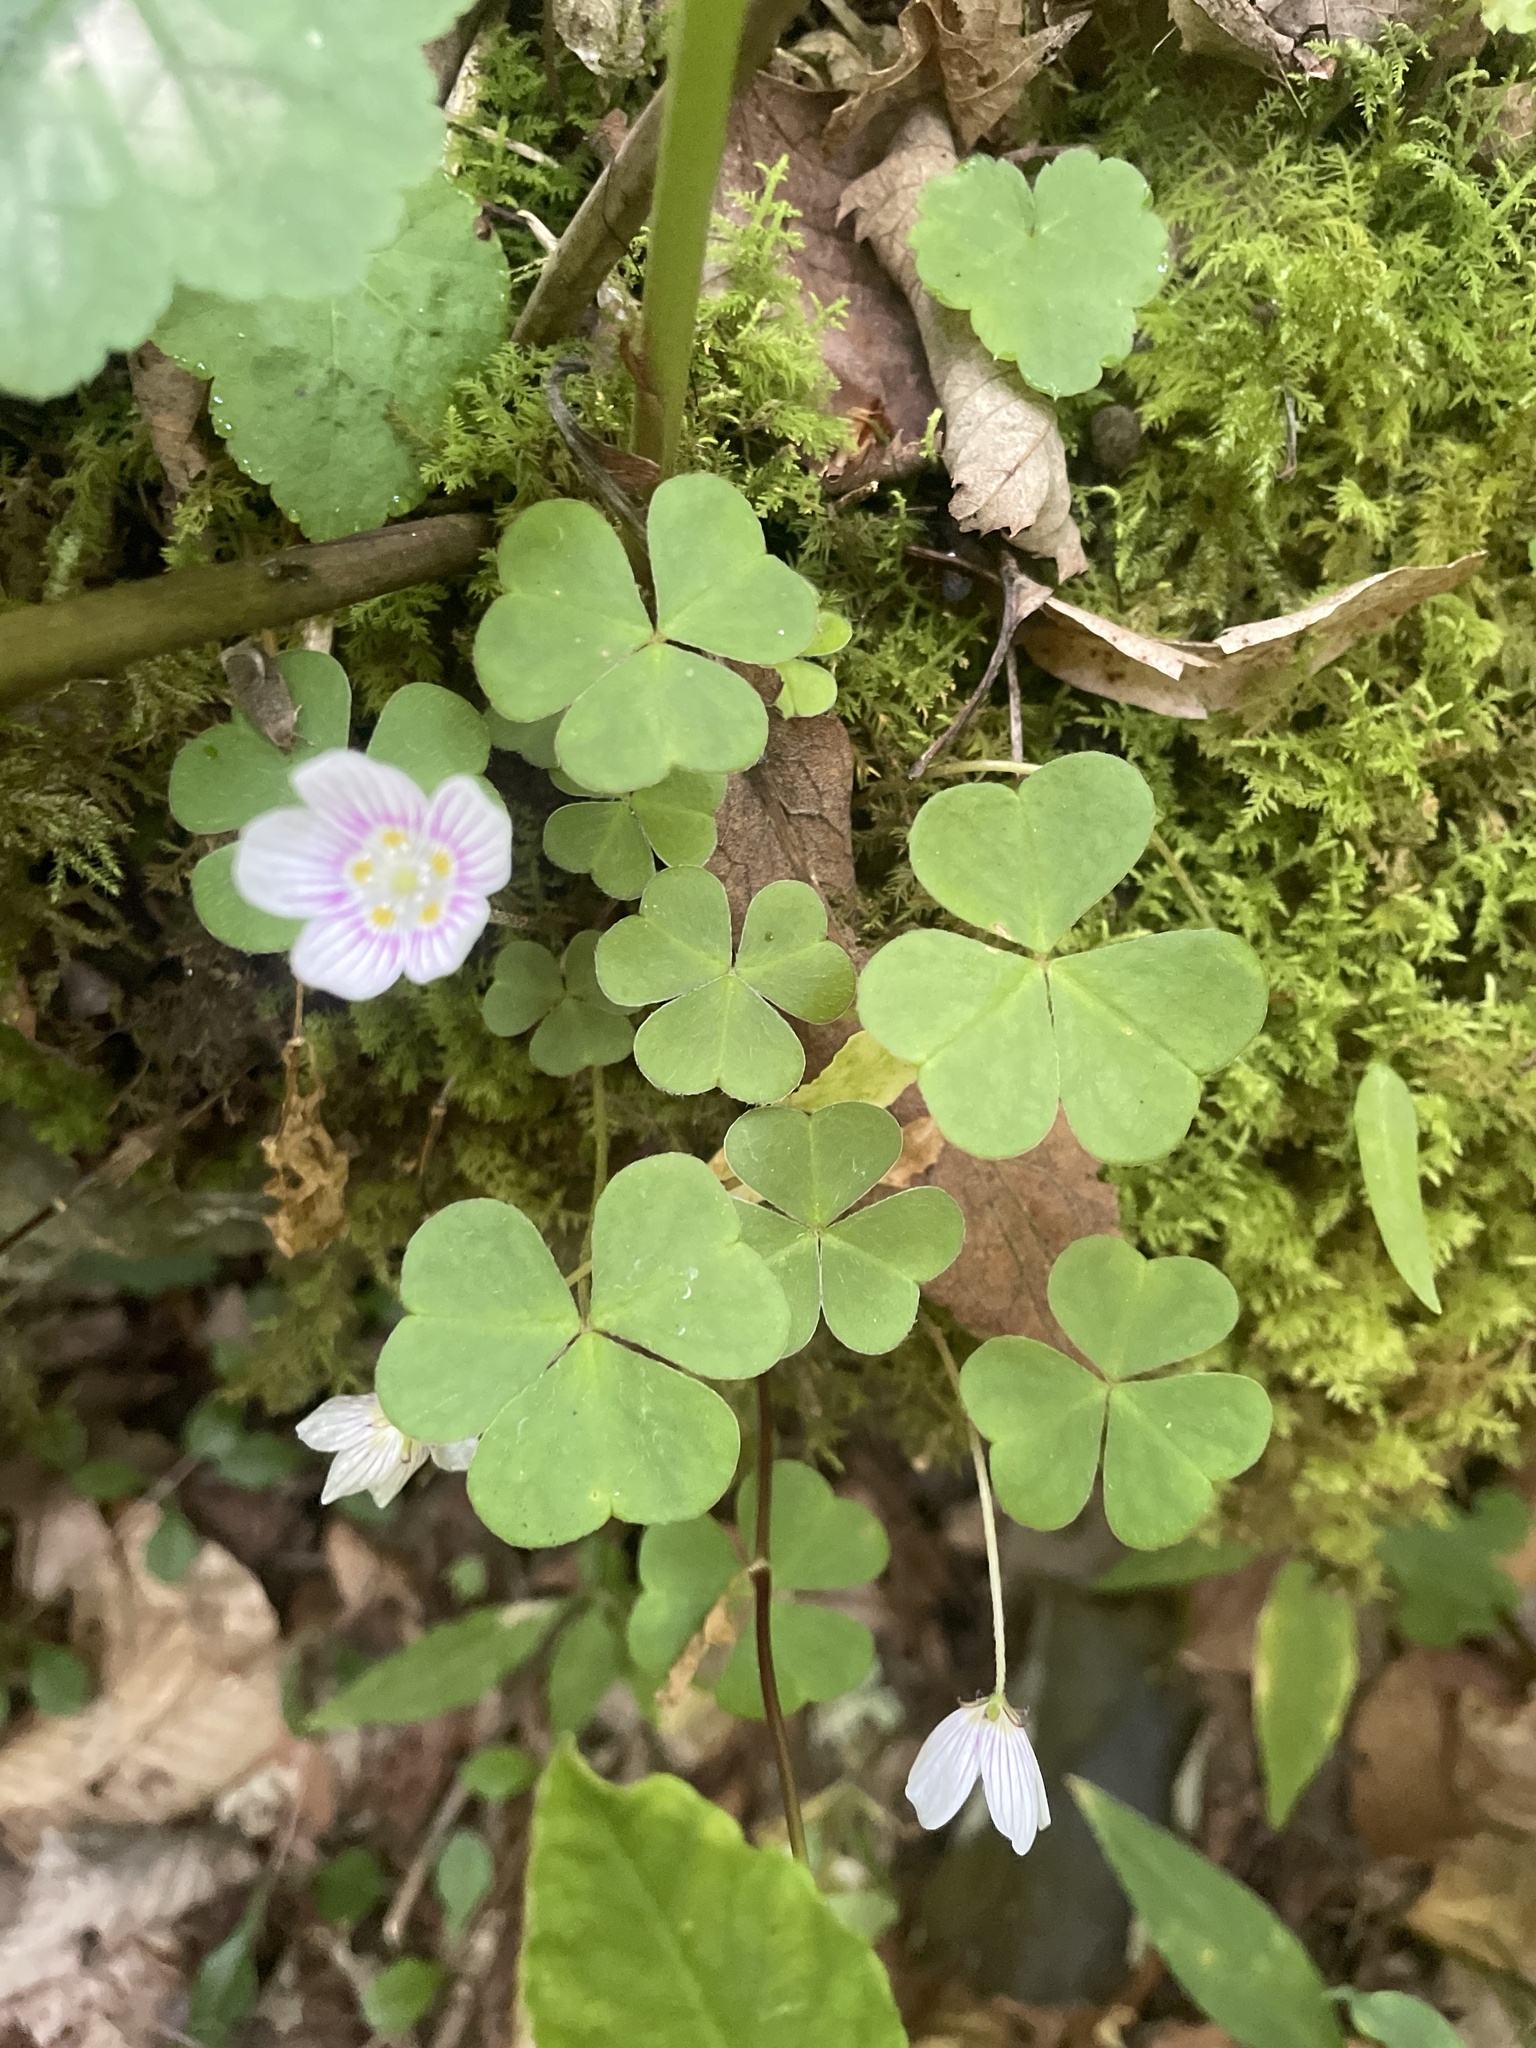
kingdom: Plantae
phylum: Tracheophyta
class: Magnoliopsida
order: Oxalidales
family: Oxalidaceae
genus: Oxalis
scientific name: Oxalis montana
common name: American wood-sorrel
